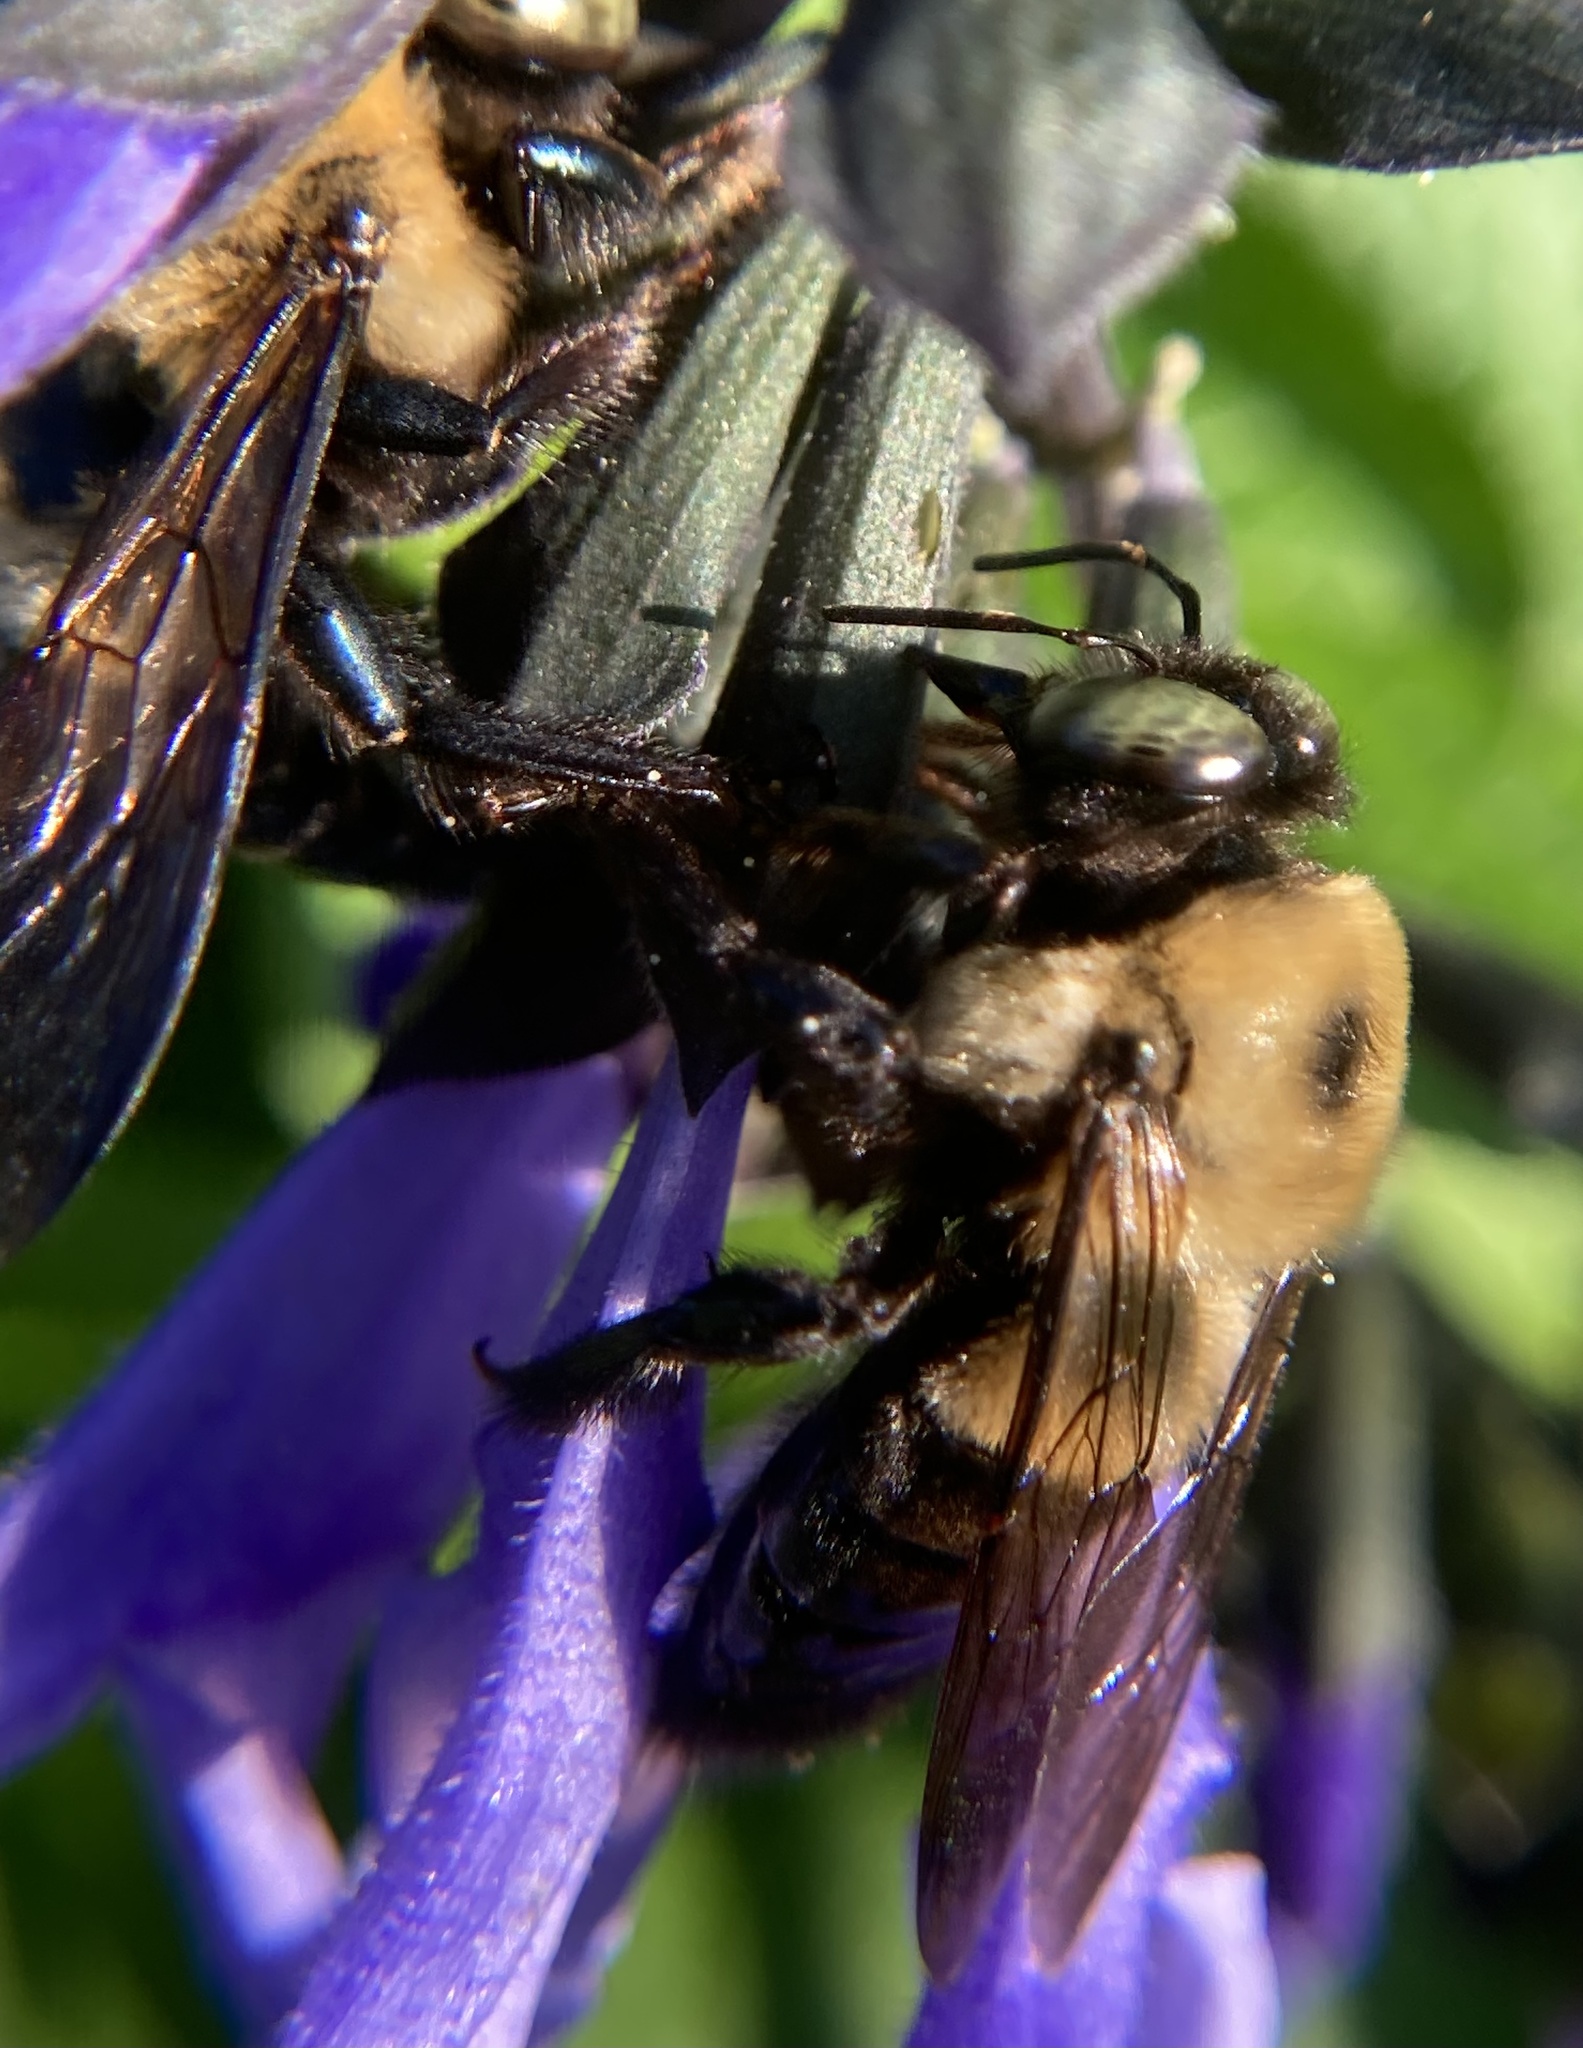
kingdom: Animalia
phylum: Arthropoda
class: Insecta
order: Hymenoptera
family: Apidae
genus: Xylocopa
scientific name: Xylocopa virginica
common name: Carpenter bee
